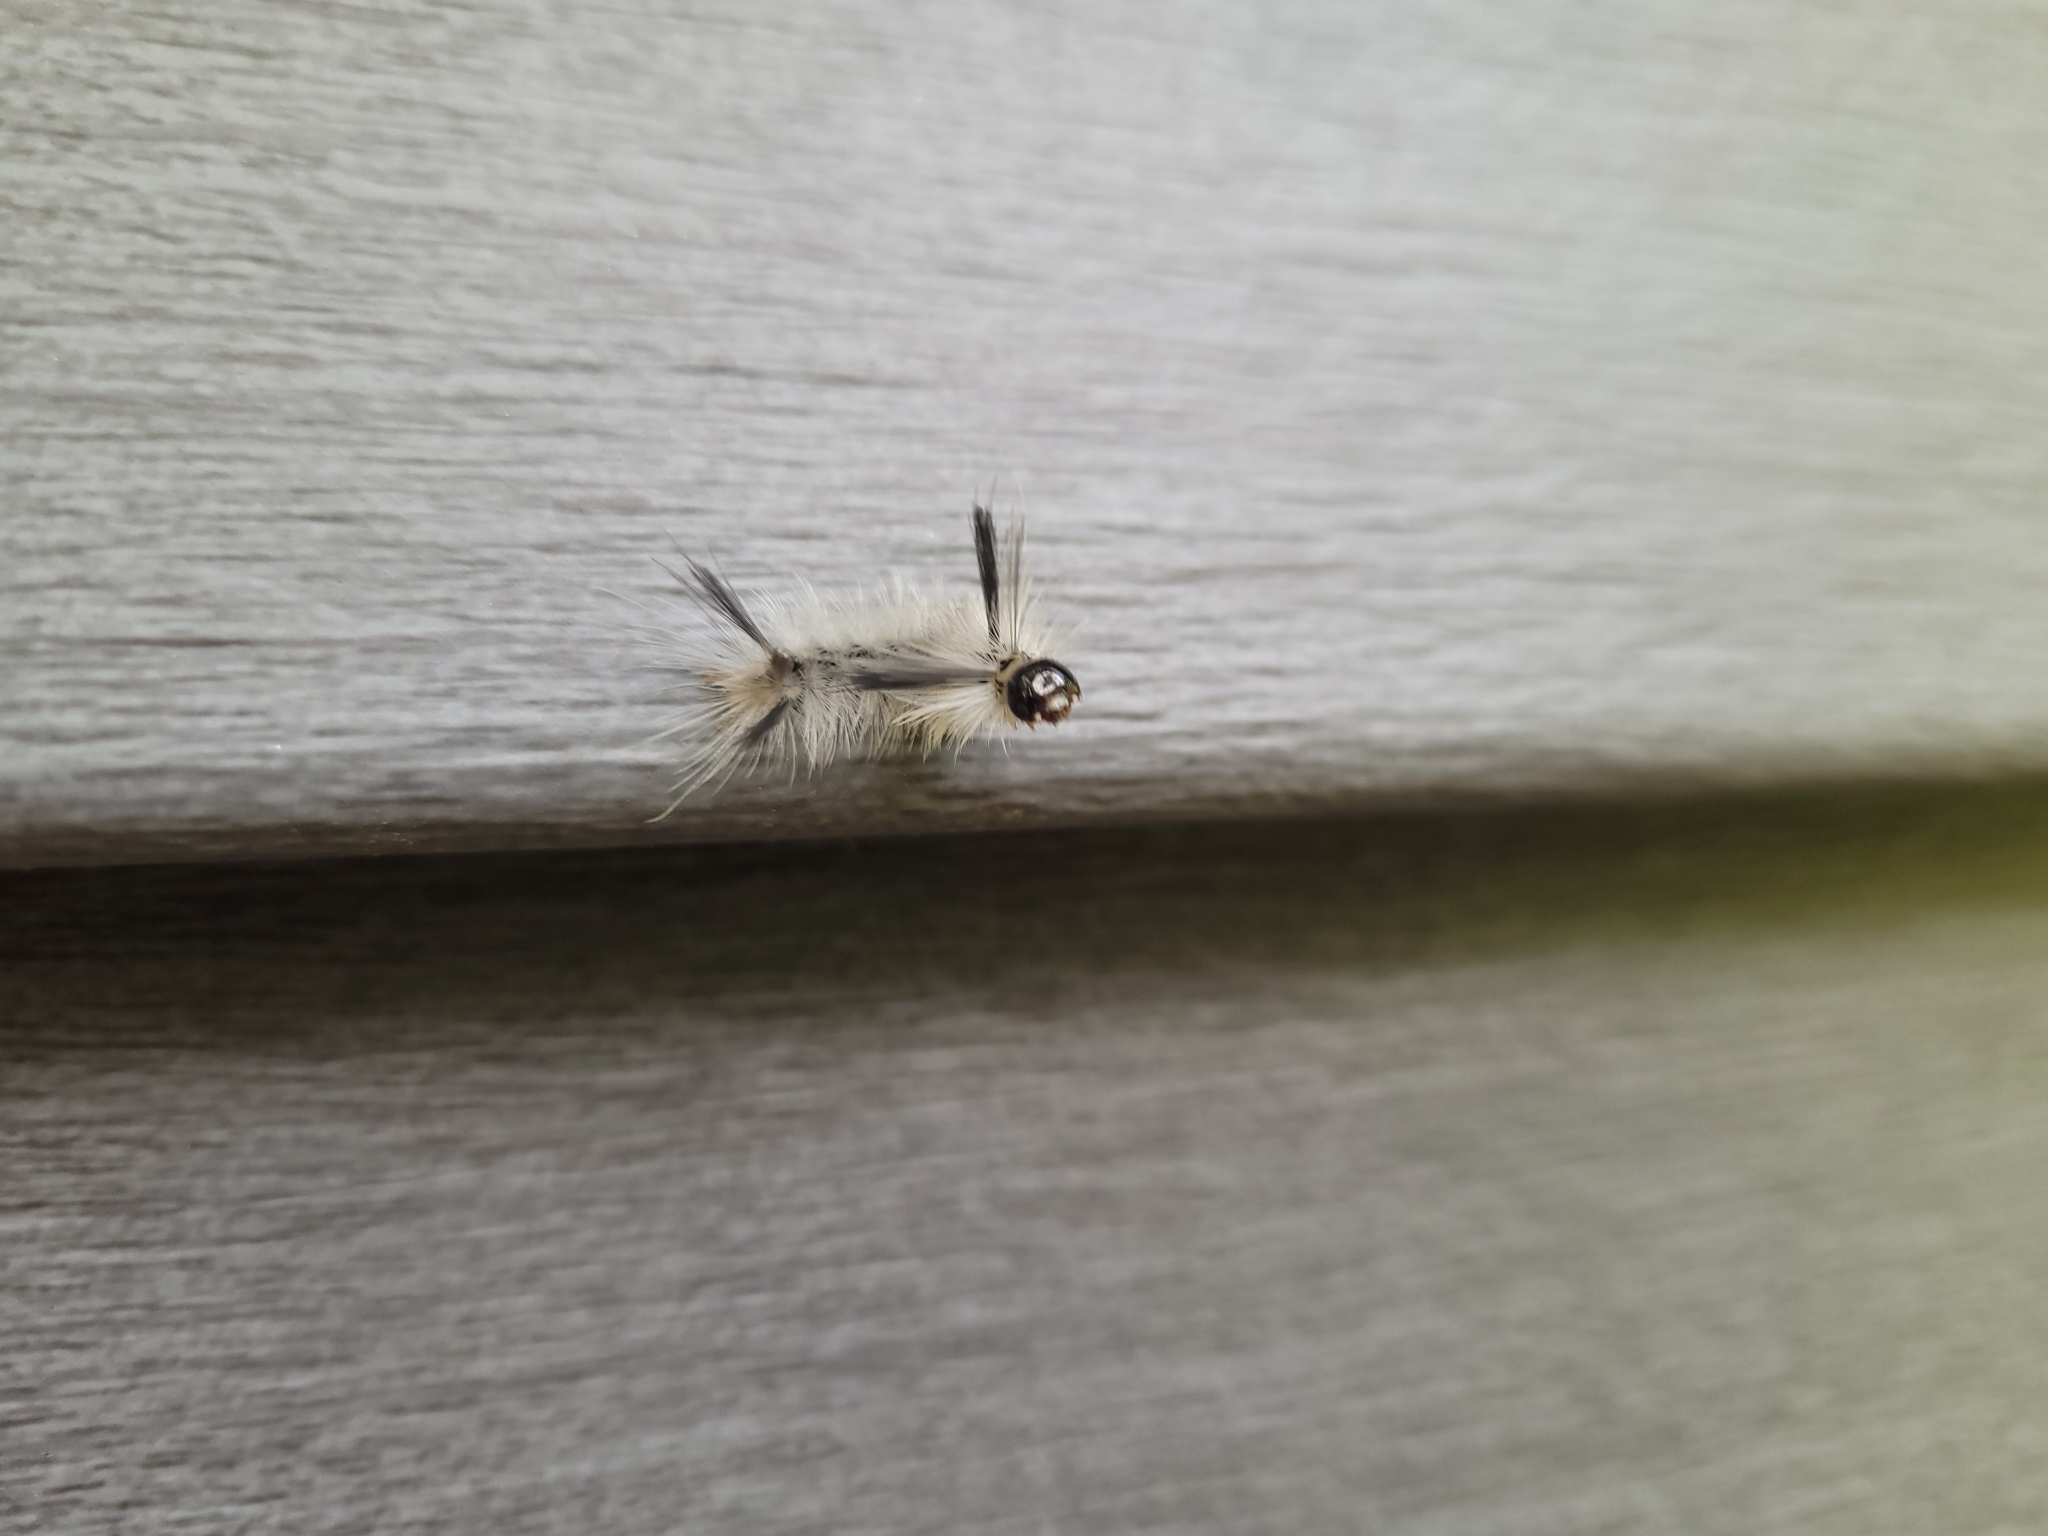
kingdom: Animalia
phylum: Arthropoda
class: Insecta
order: Lepidoptera
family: Erebidae
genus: Halysidota
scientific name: Halysidota tessellaris
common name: Banded tussock moth
